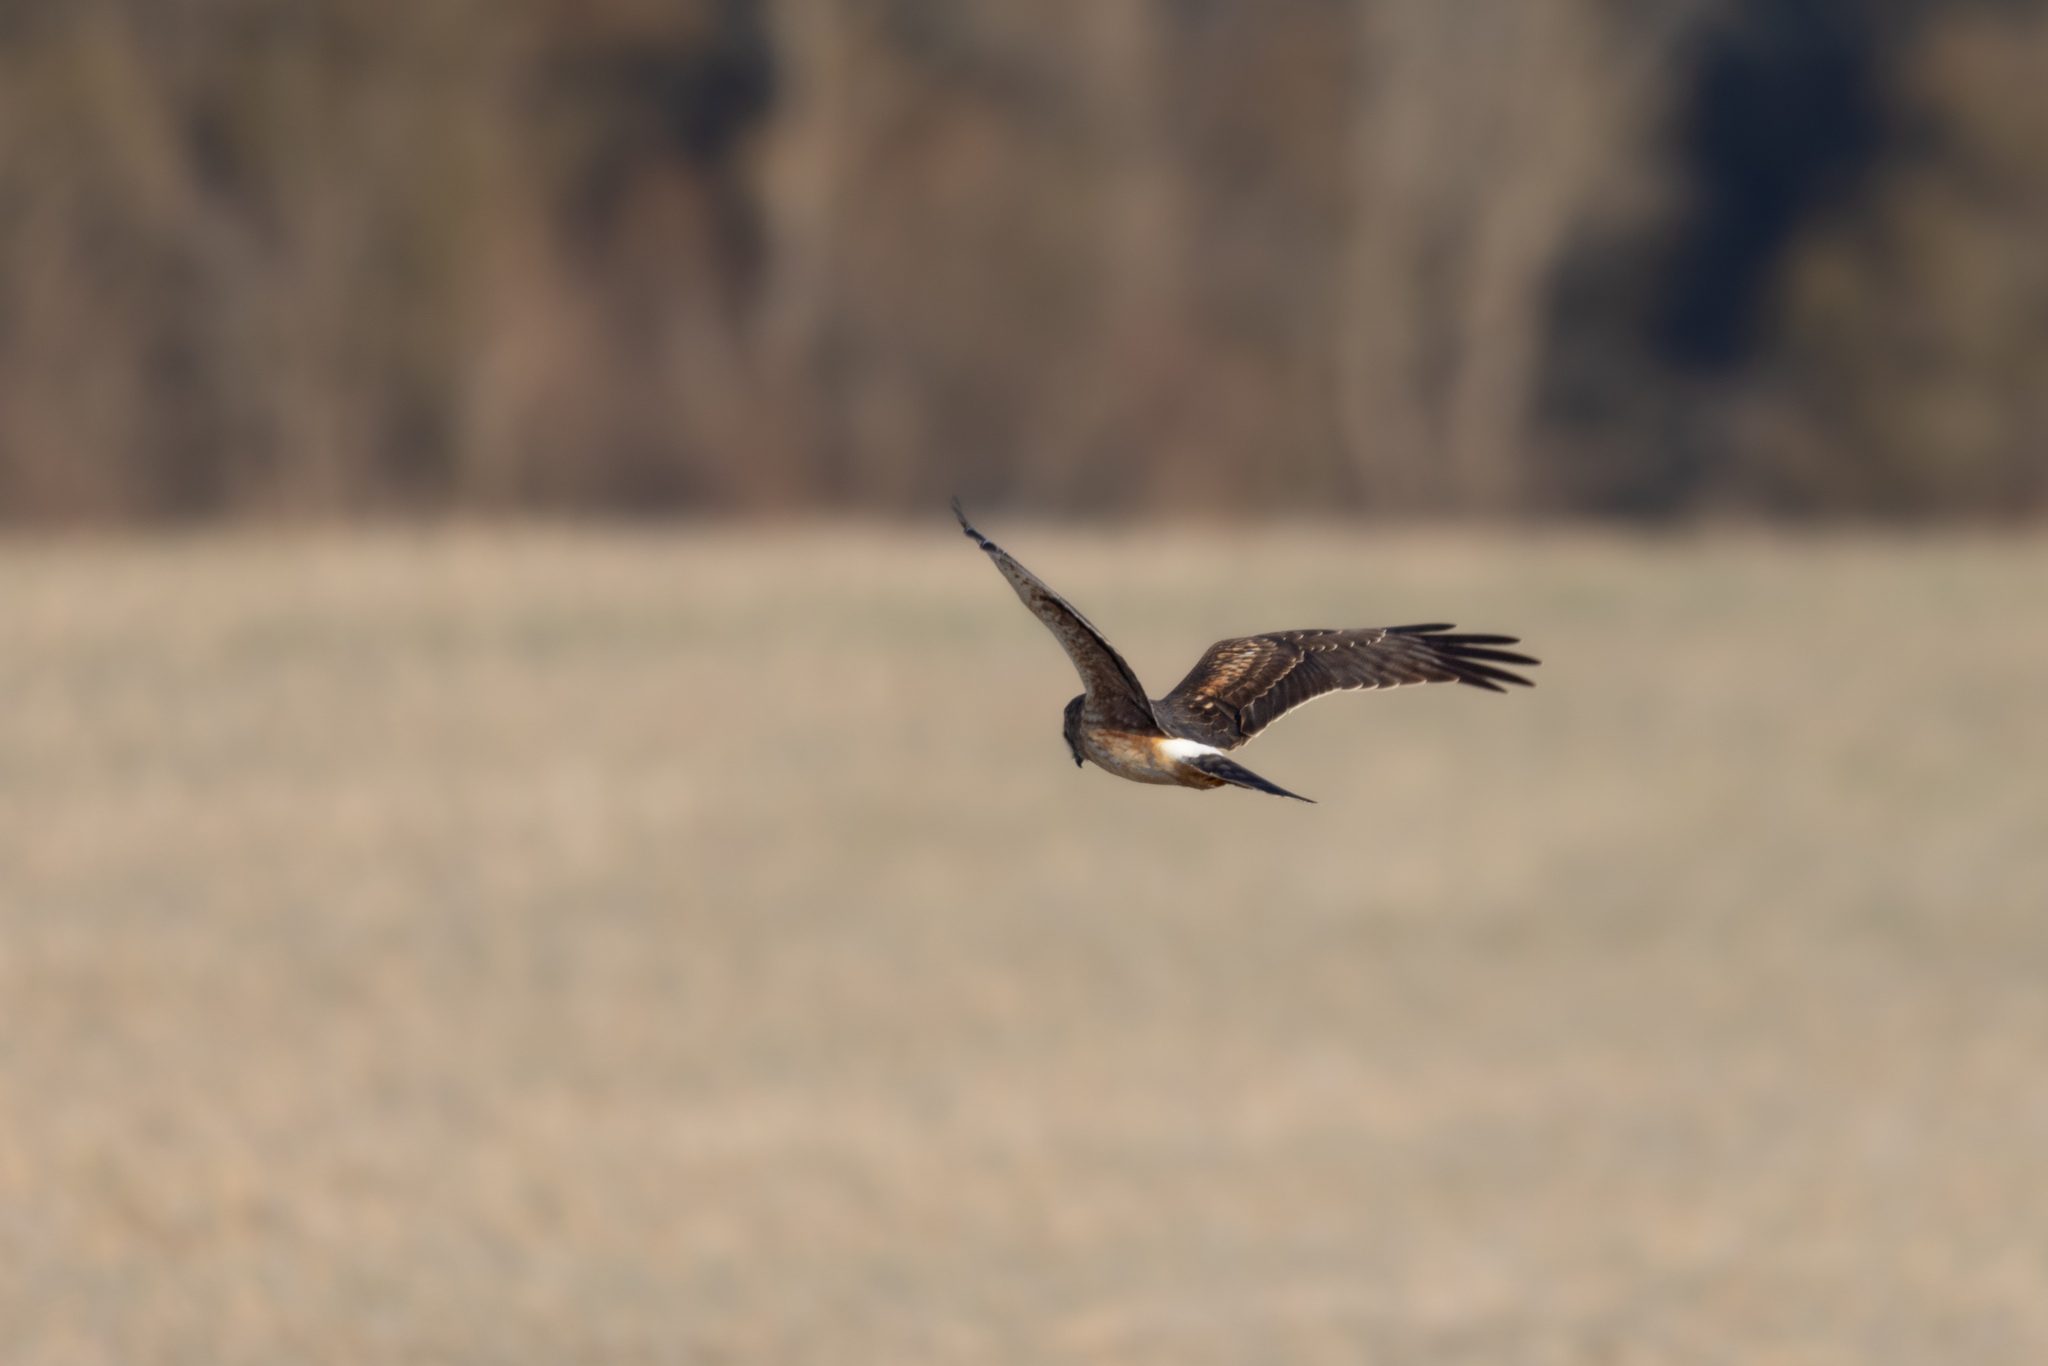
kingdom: Animalia
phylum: Chordata
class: Aves
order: Accipitriformes
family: Accipitridae
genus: Circus
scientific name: Circus cyaneus
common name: Hen harrier
